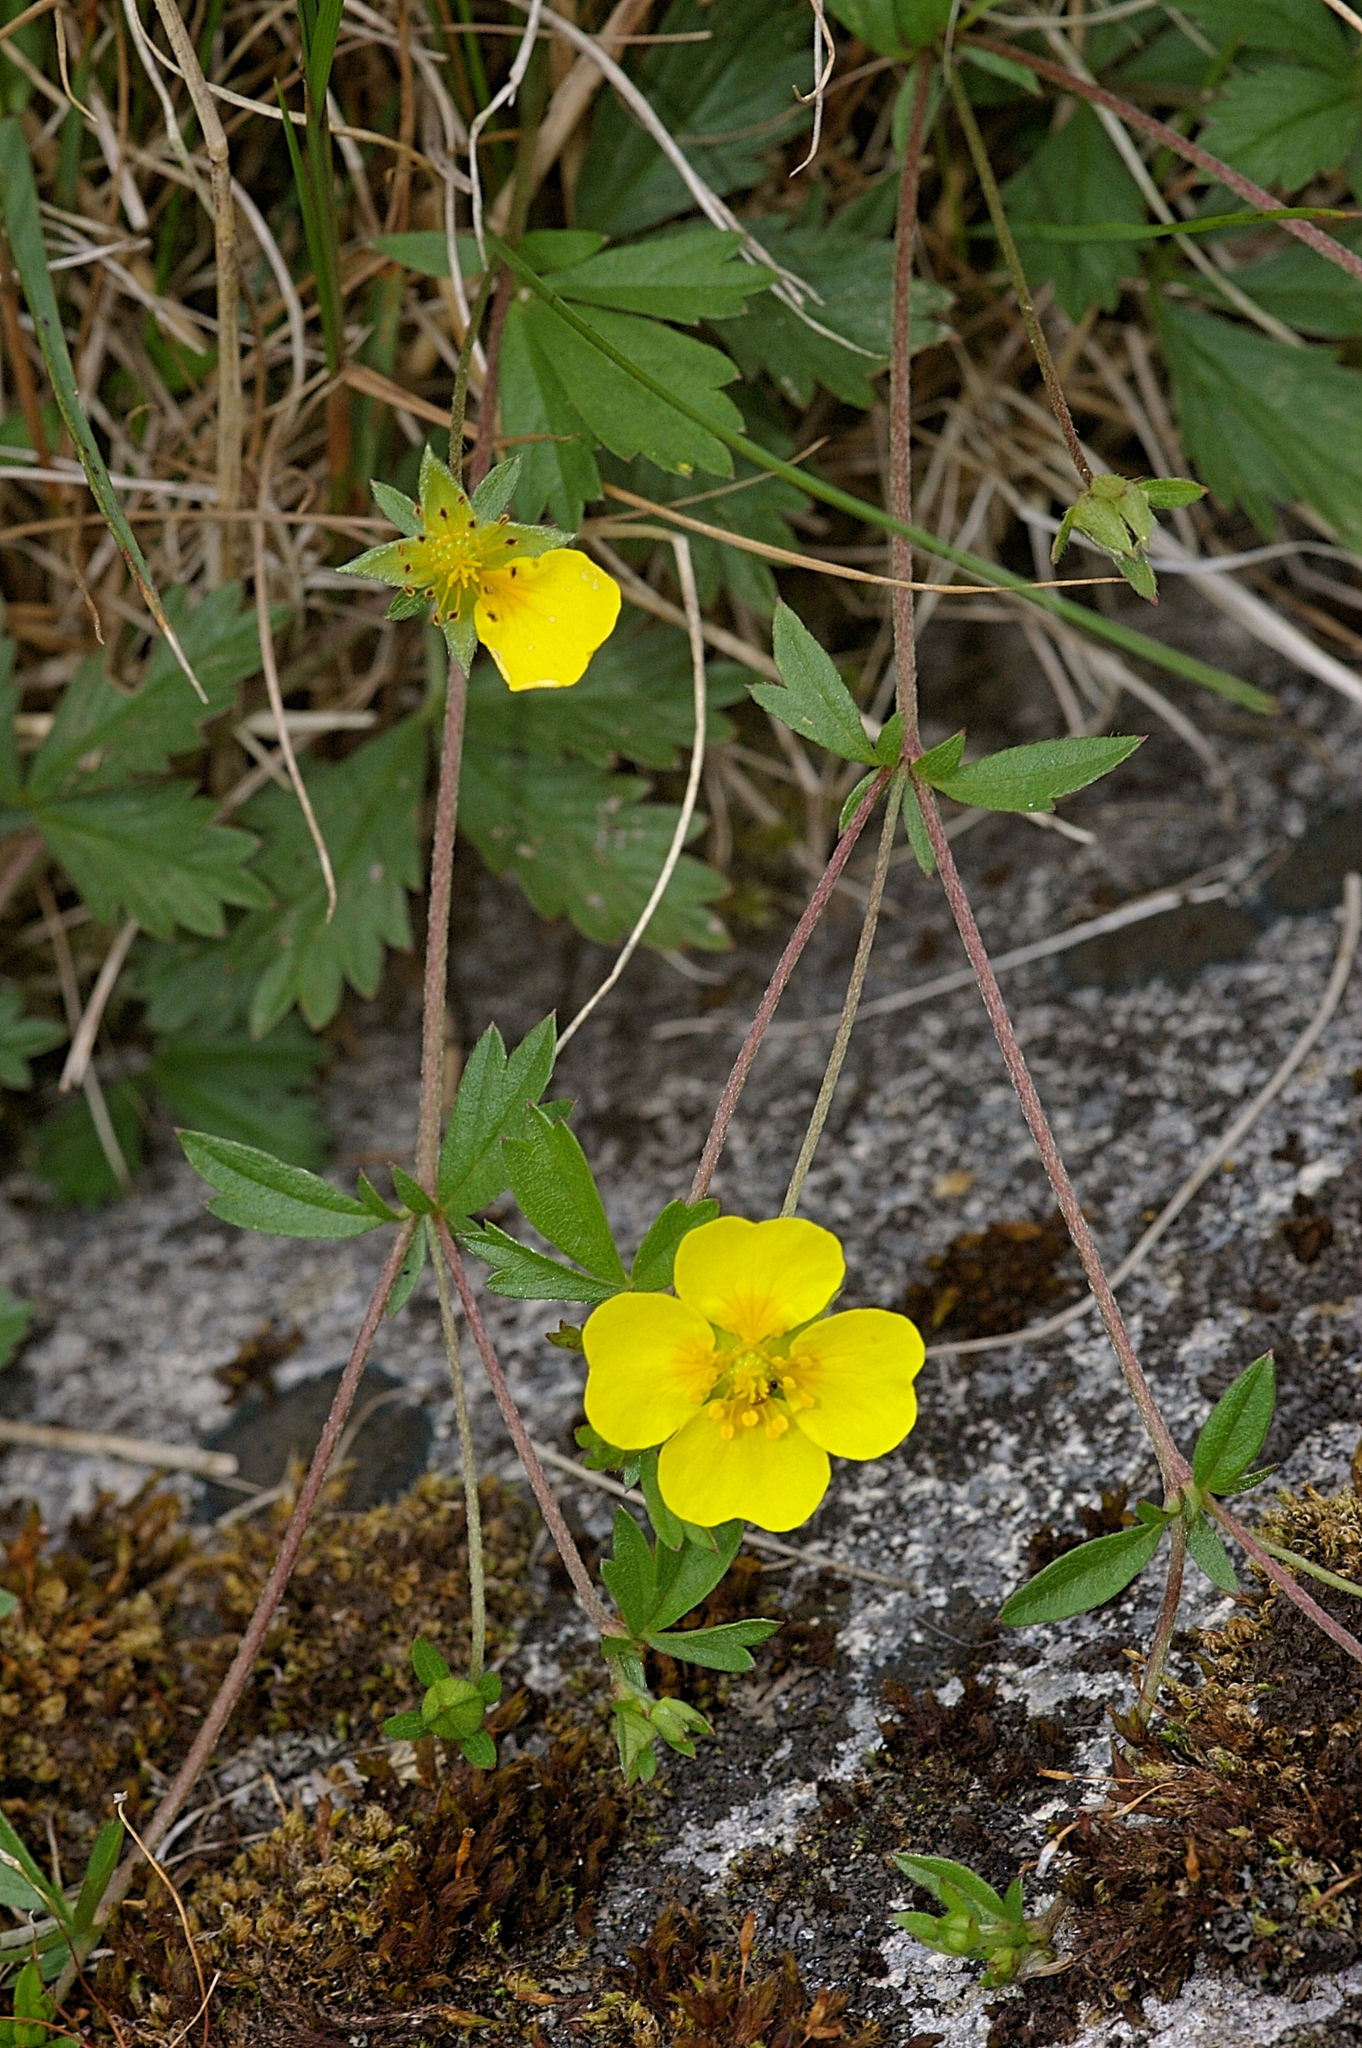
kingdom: Plantae
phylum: Tracheophyta
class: Magnoliopsida
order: Rosales
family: Rosaceae
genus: Potentilla
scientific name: Potentilla erecta
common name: Tormentil
